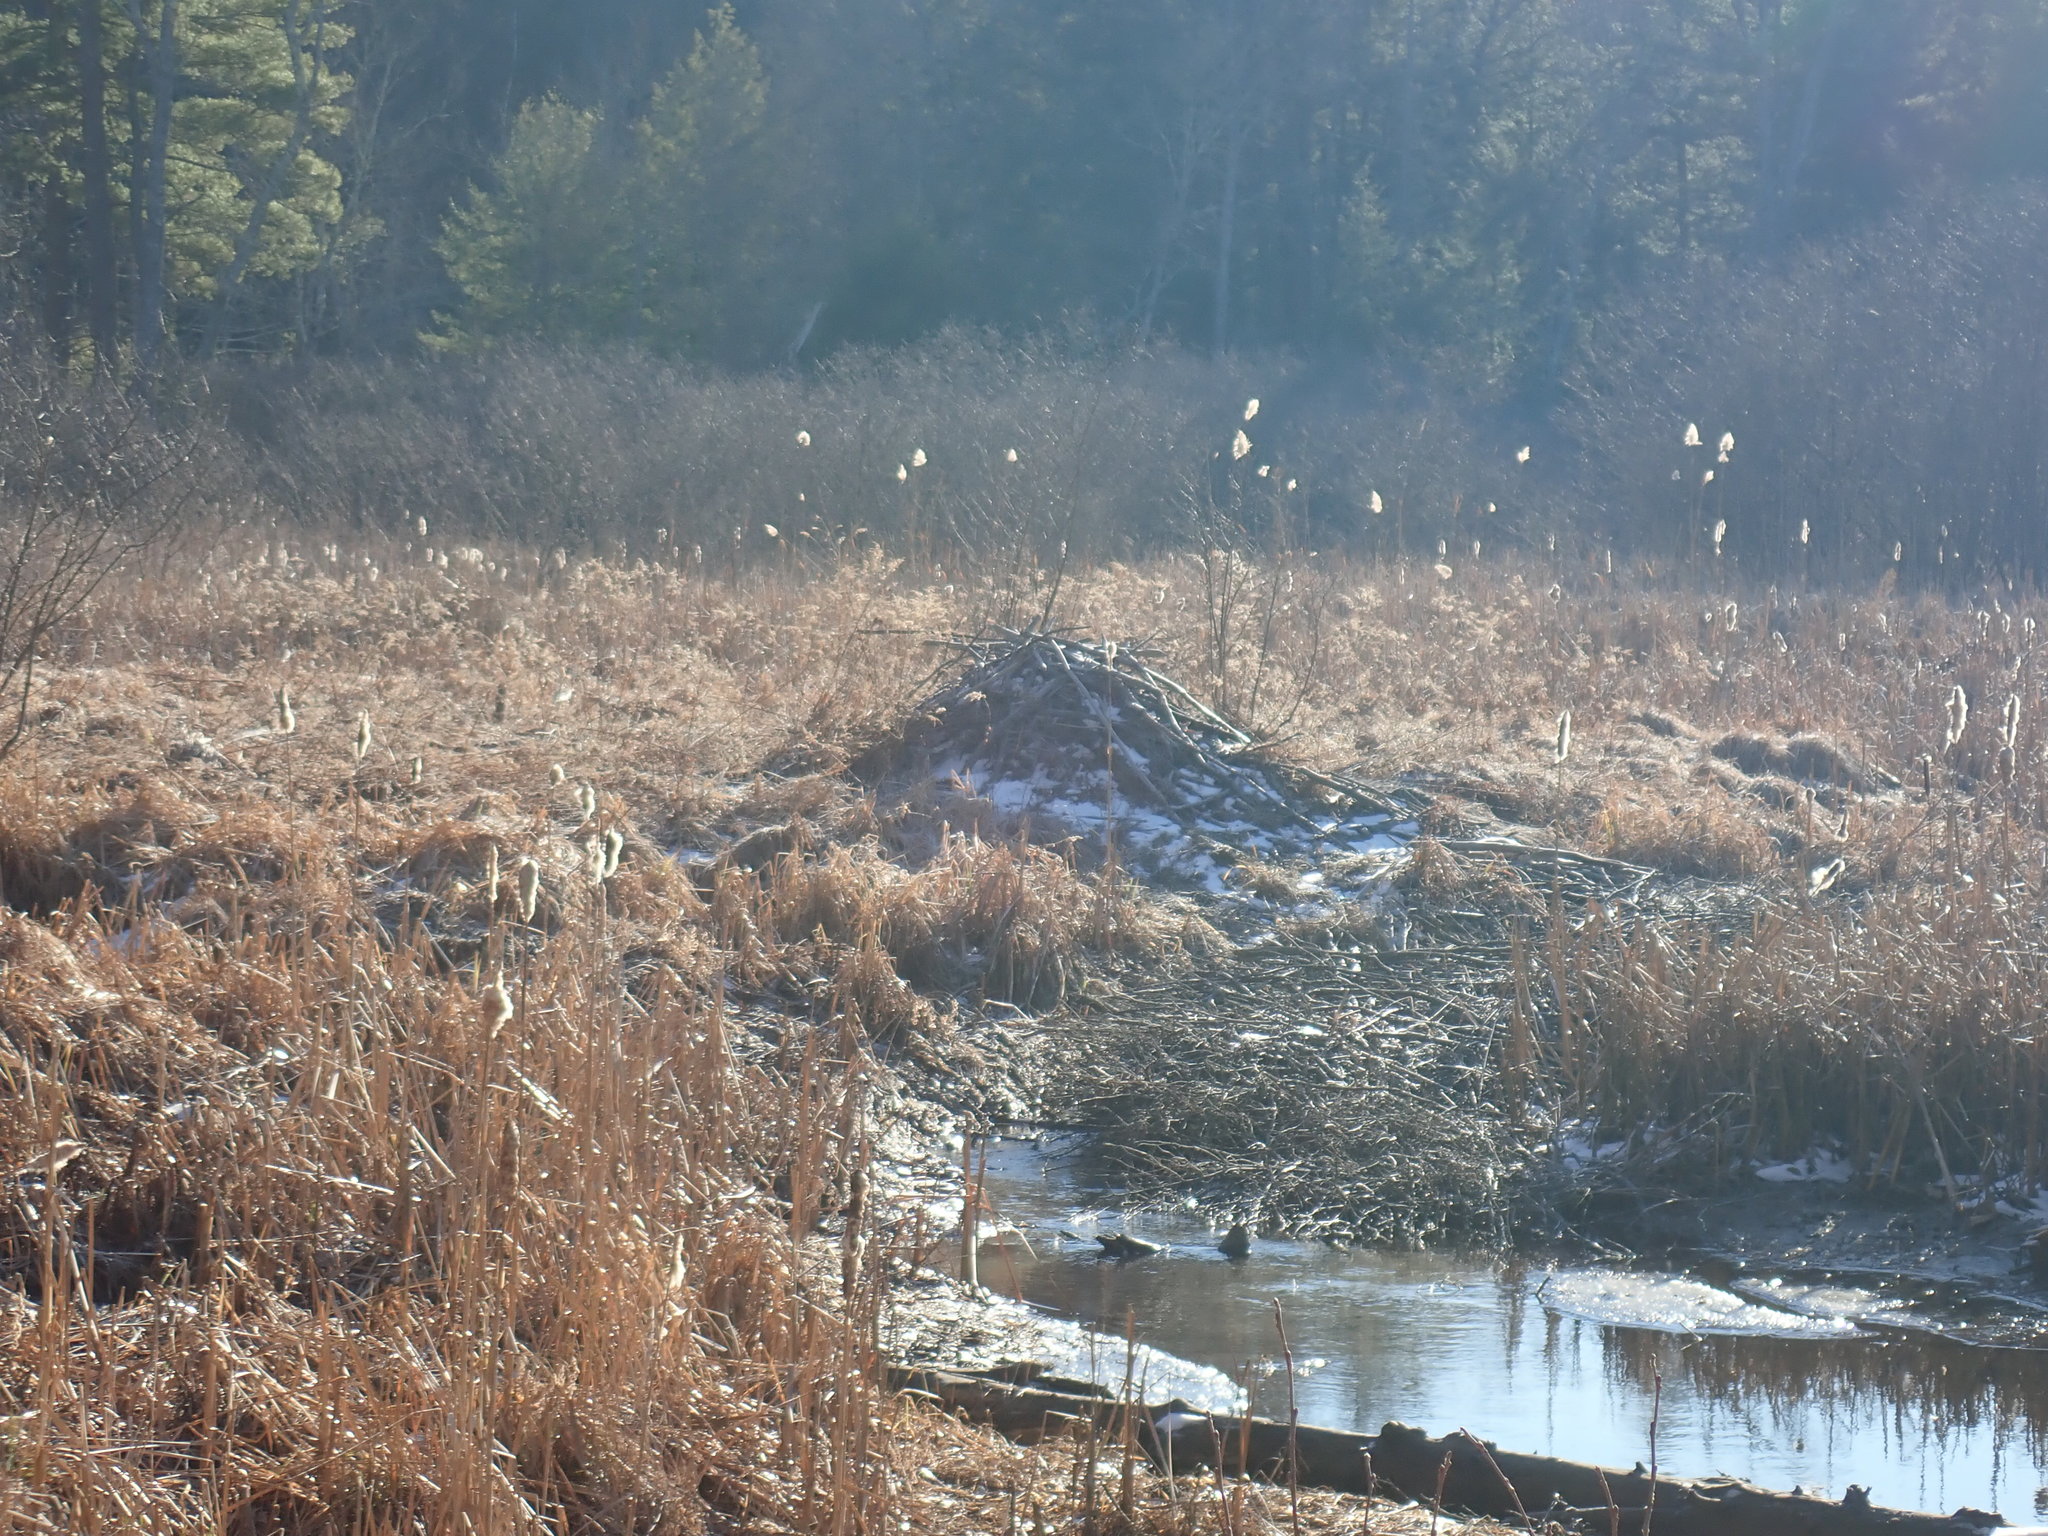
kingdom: Animalia
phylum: Chordata
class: Mammalia
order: Rodentia
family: Castoridae
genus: Castor
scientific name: Castor canadensis
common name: American beaver
